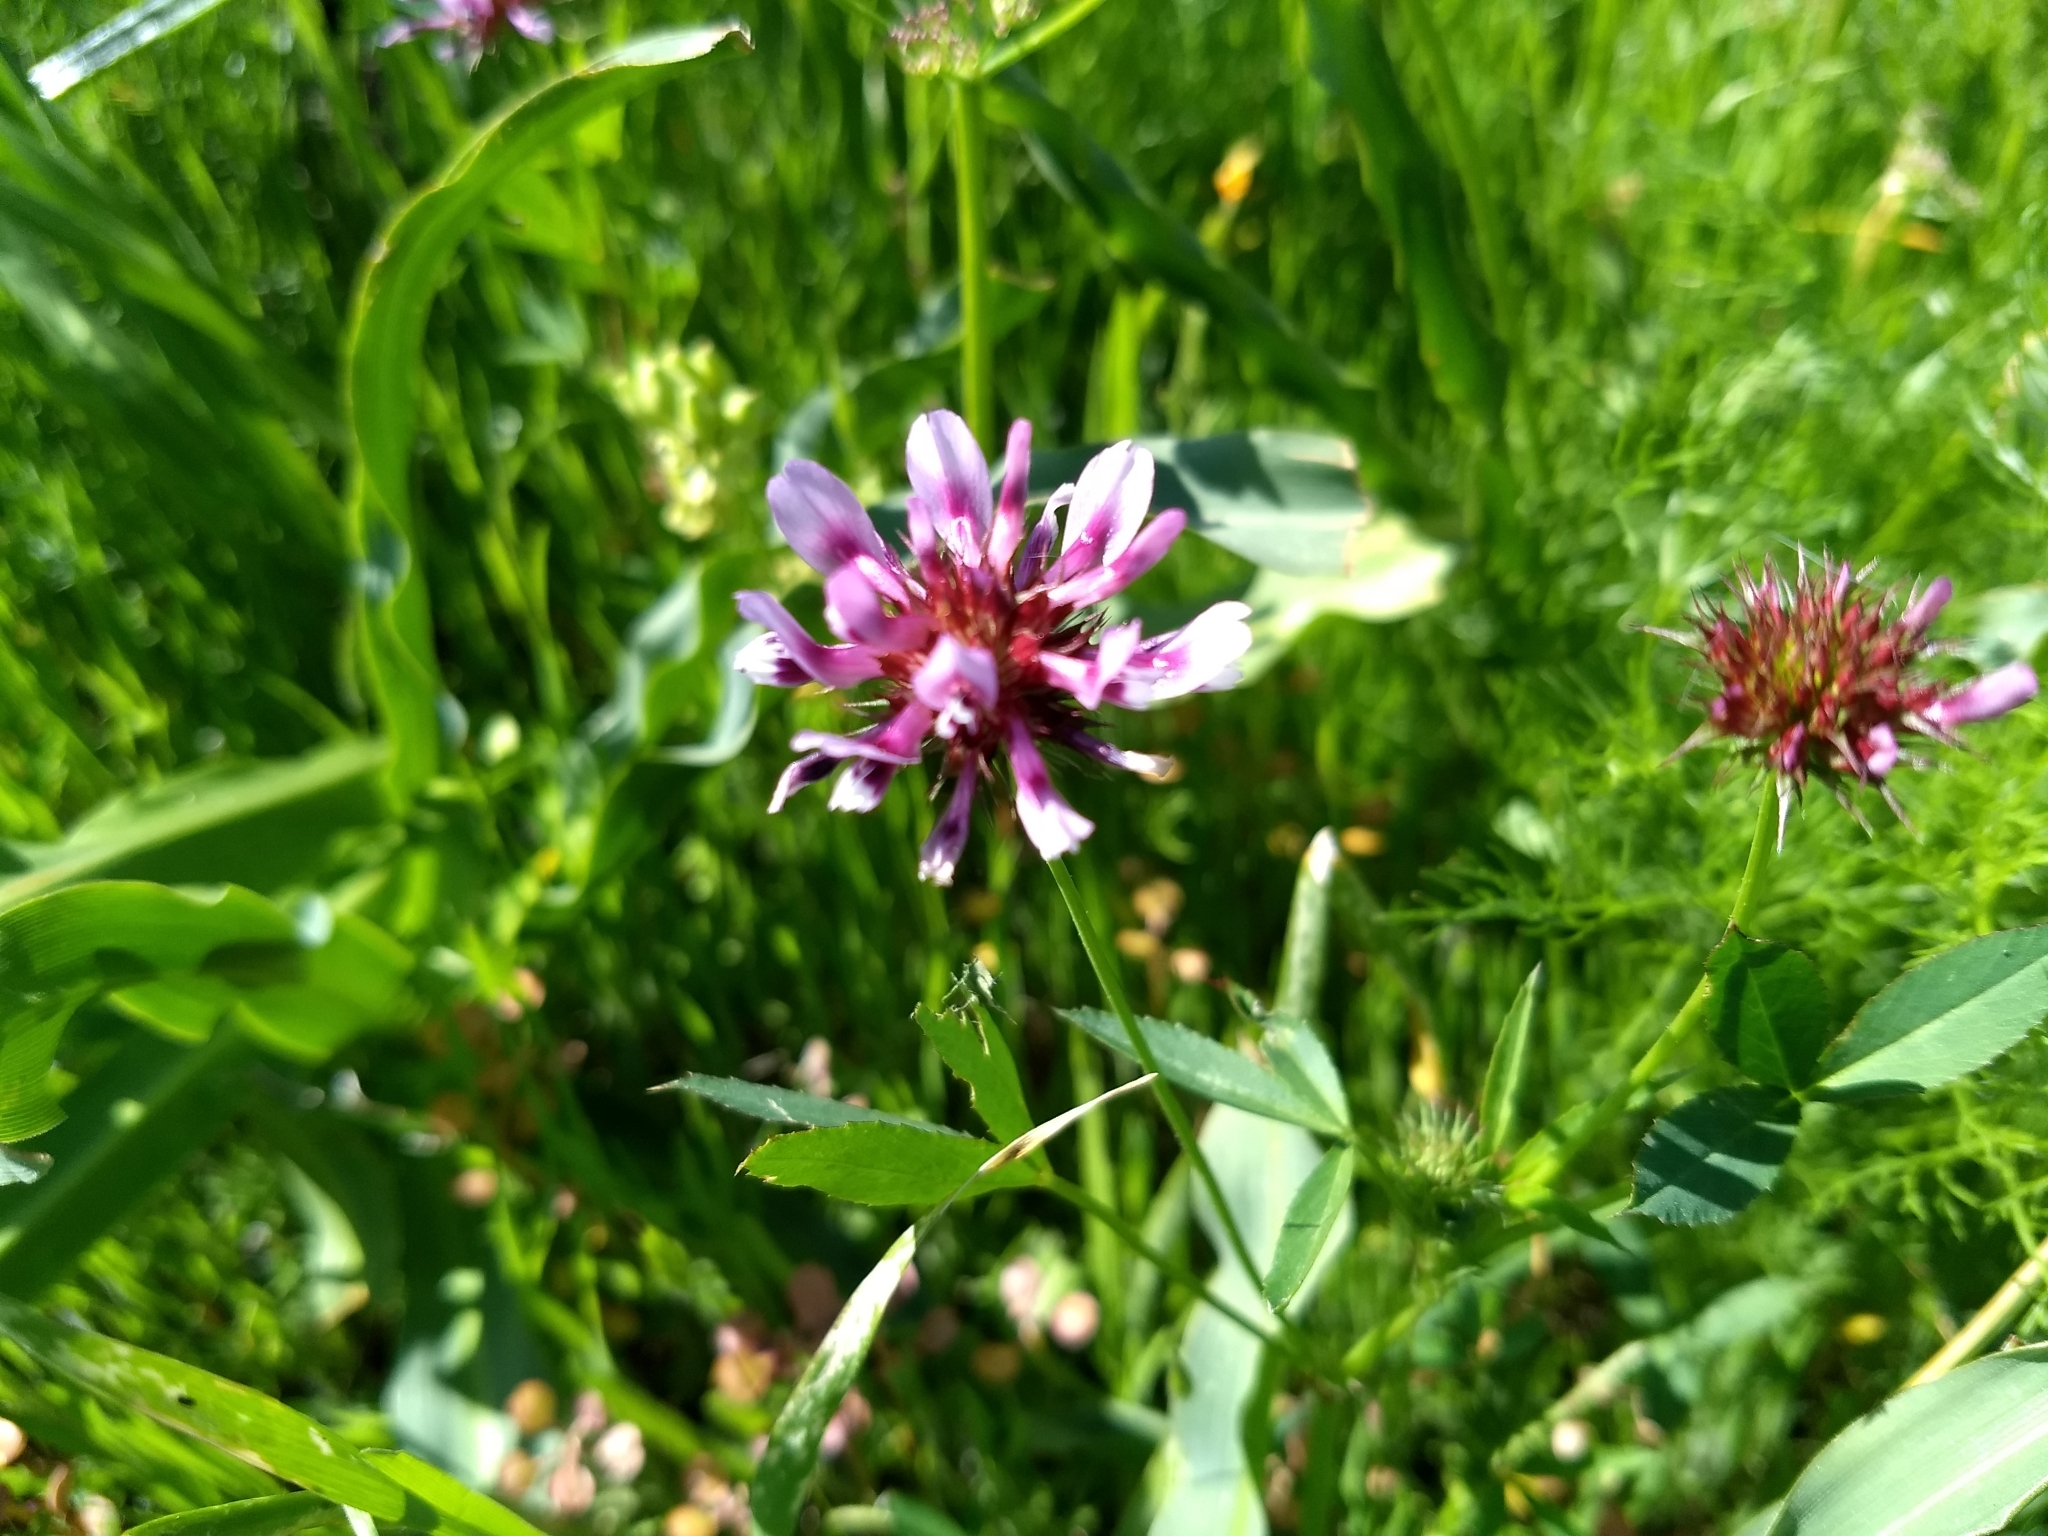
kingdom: Plantae
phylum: Tracheophyta
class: Magnoliopsida
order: Fabales
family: Fabaceae
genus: Trifolium
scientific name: Trifolium willdenovii
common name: Tomcat clover
